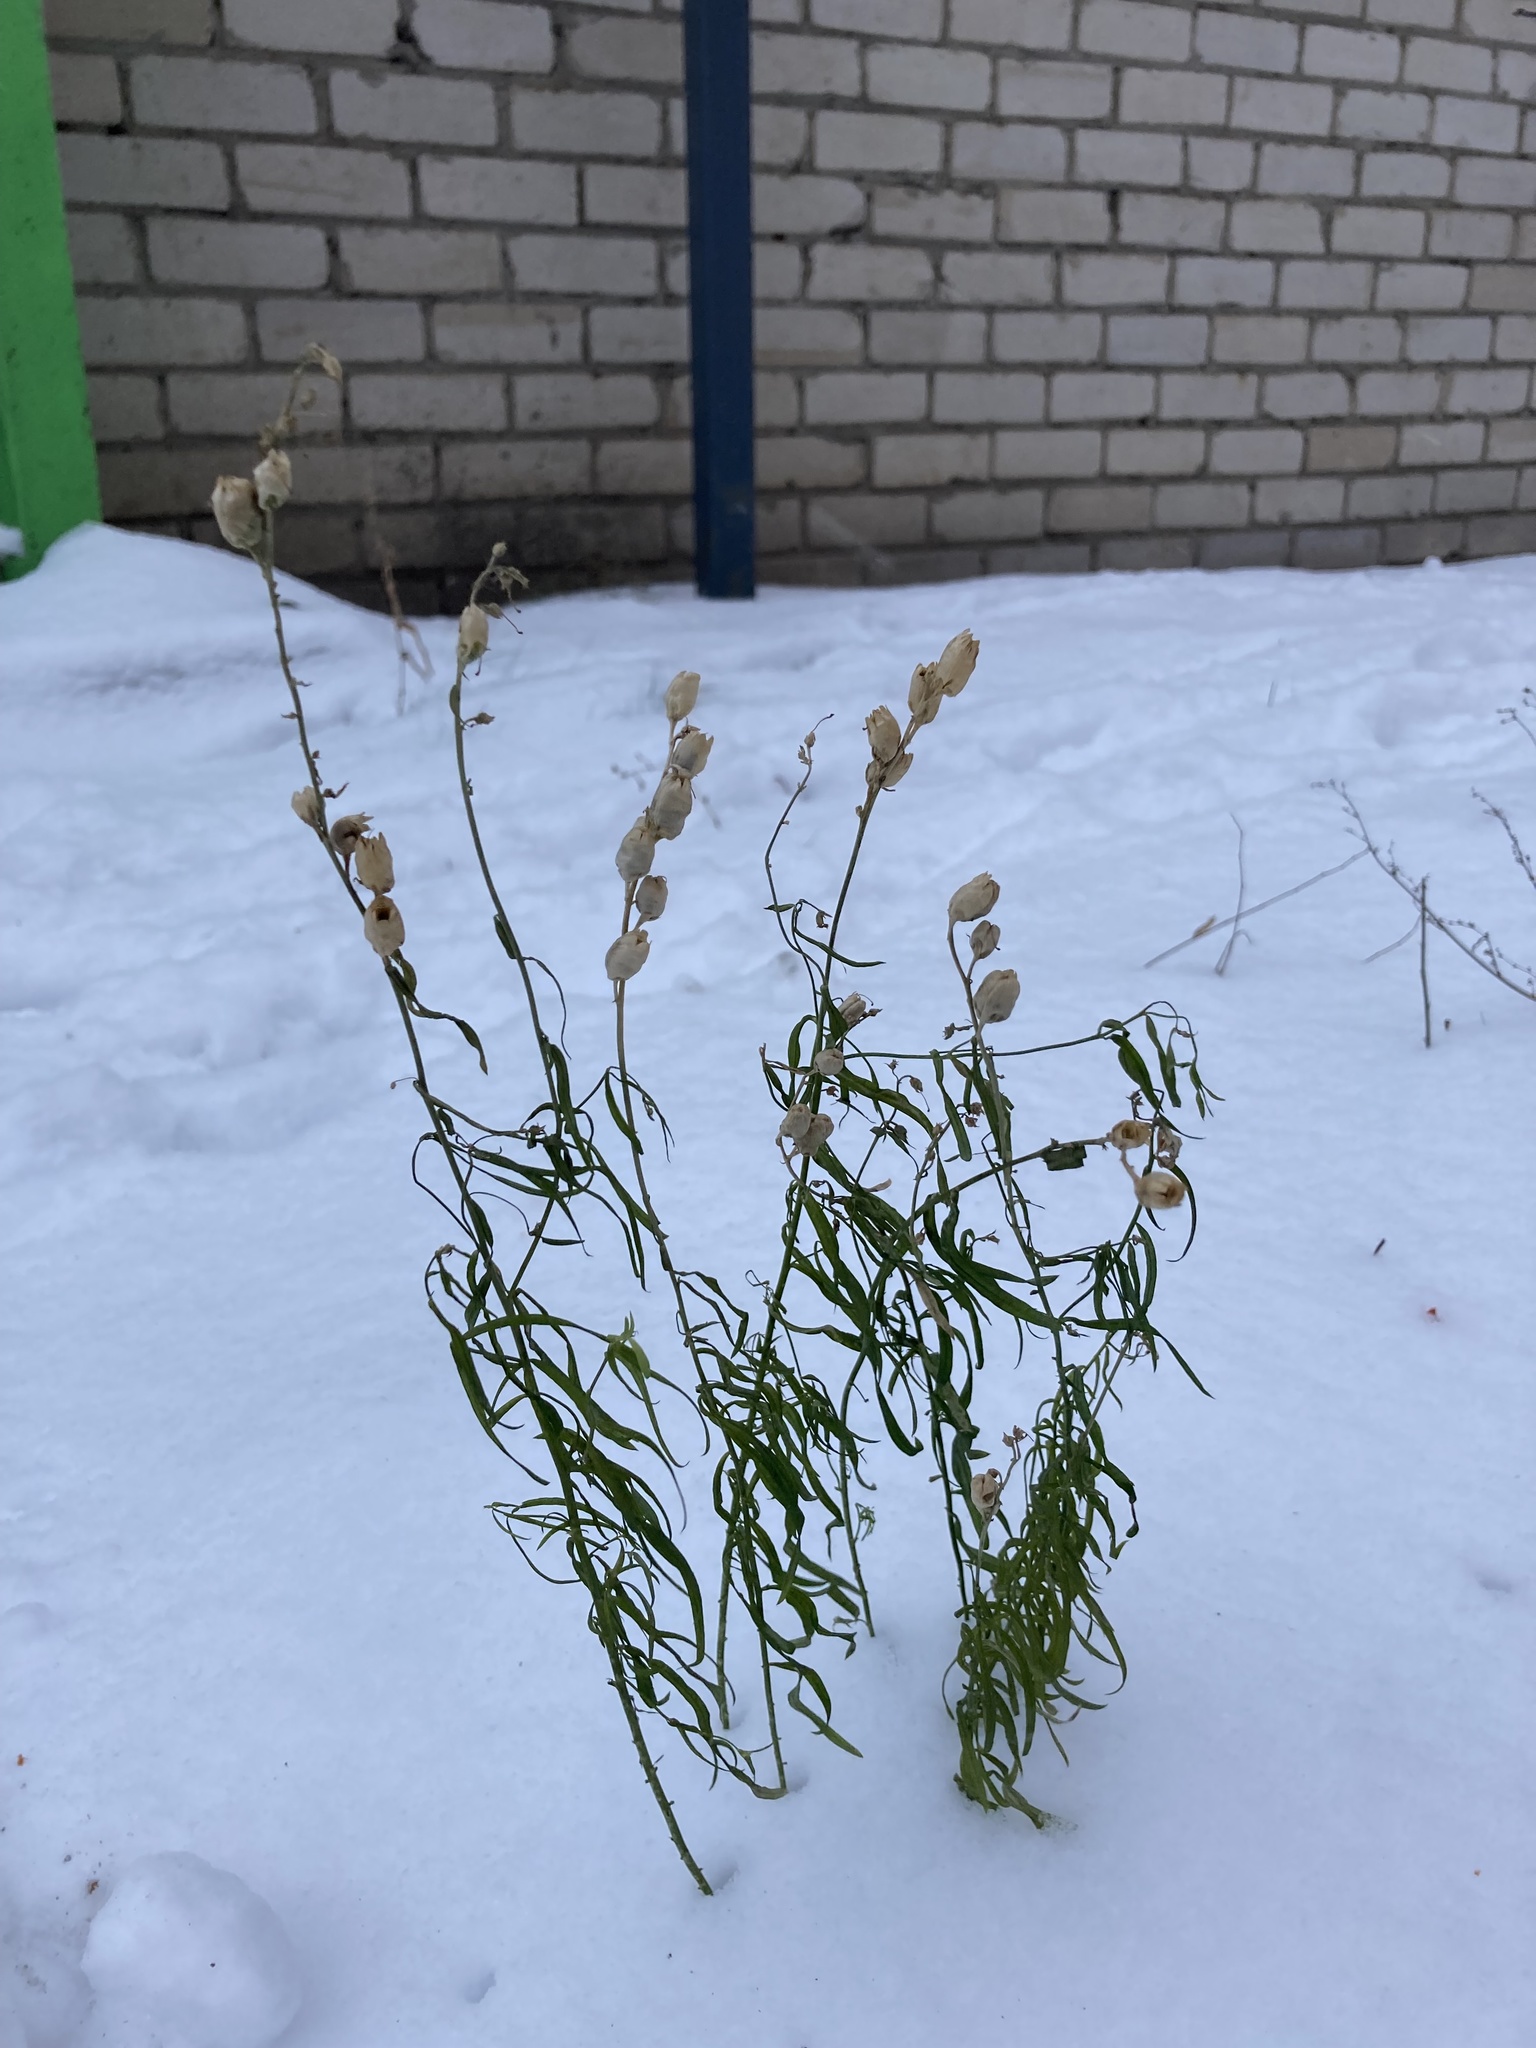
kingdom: Plantae
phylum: Tracheophyta
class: Magnoliopsida
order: Lamiales
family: Plantaginaceae
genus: Linaria
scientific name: Linaria vulgaris
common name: Butter and eggs
